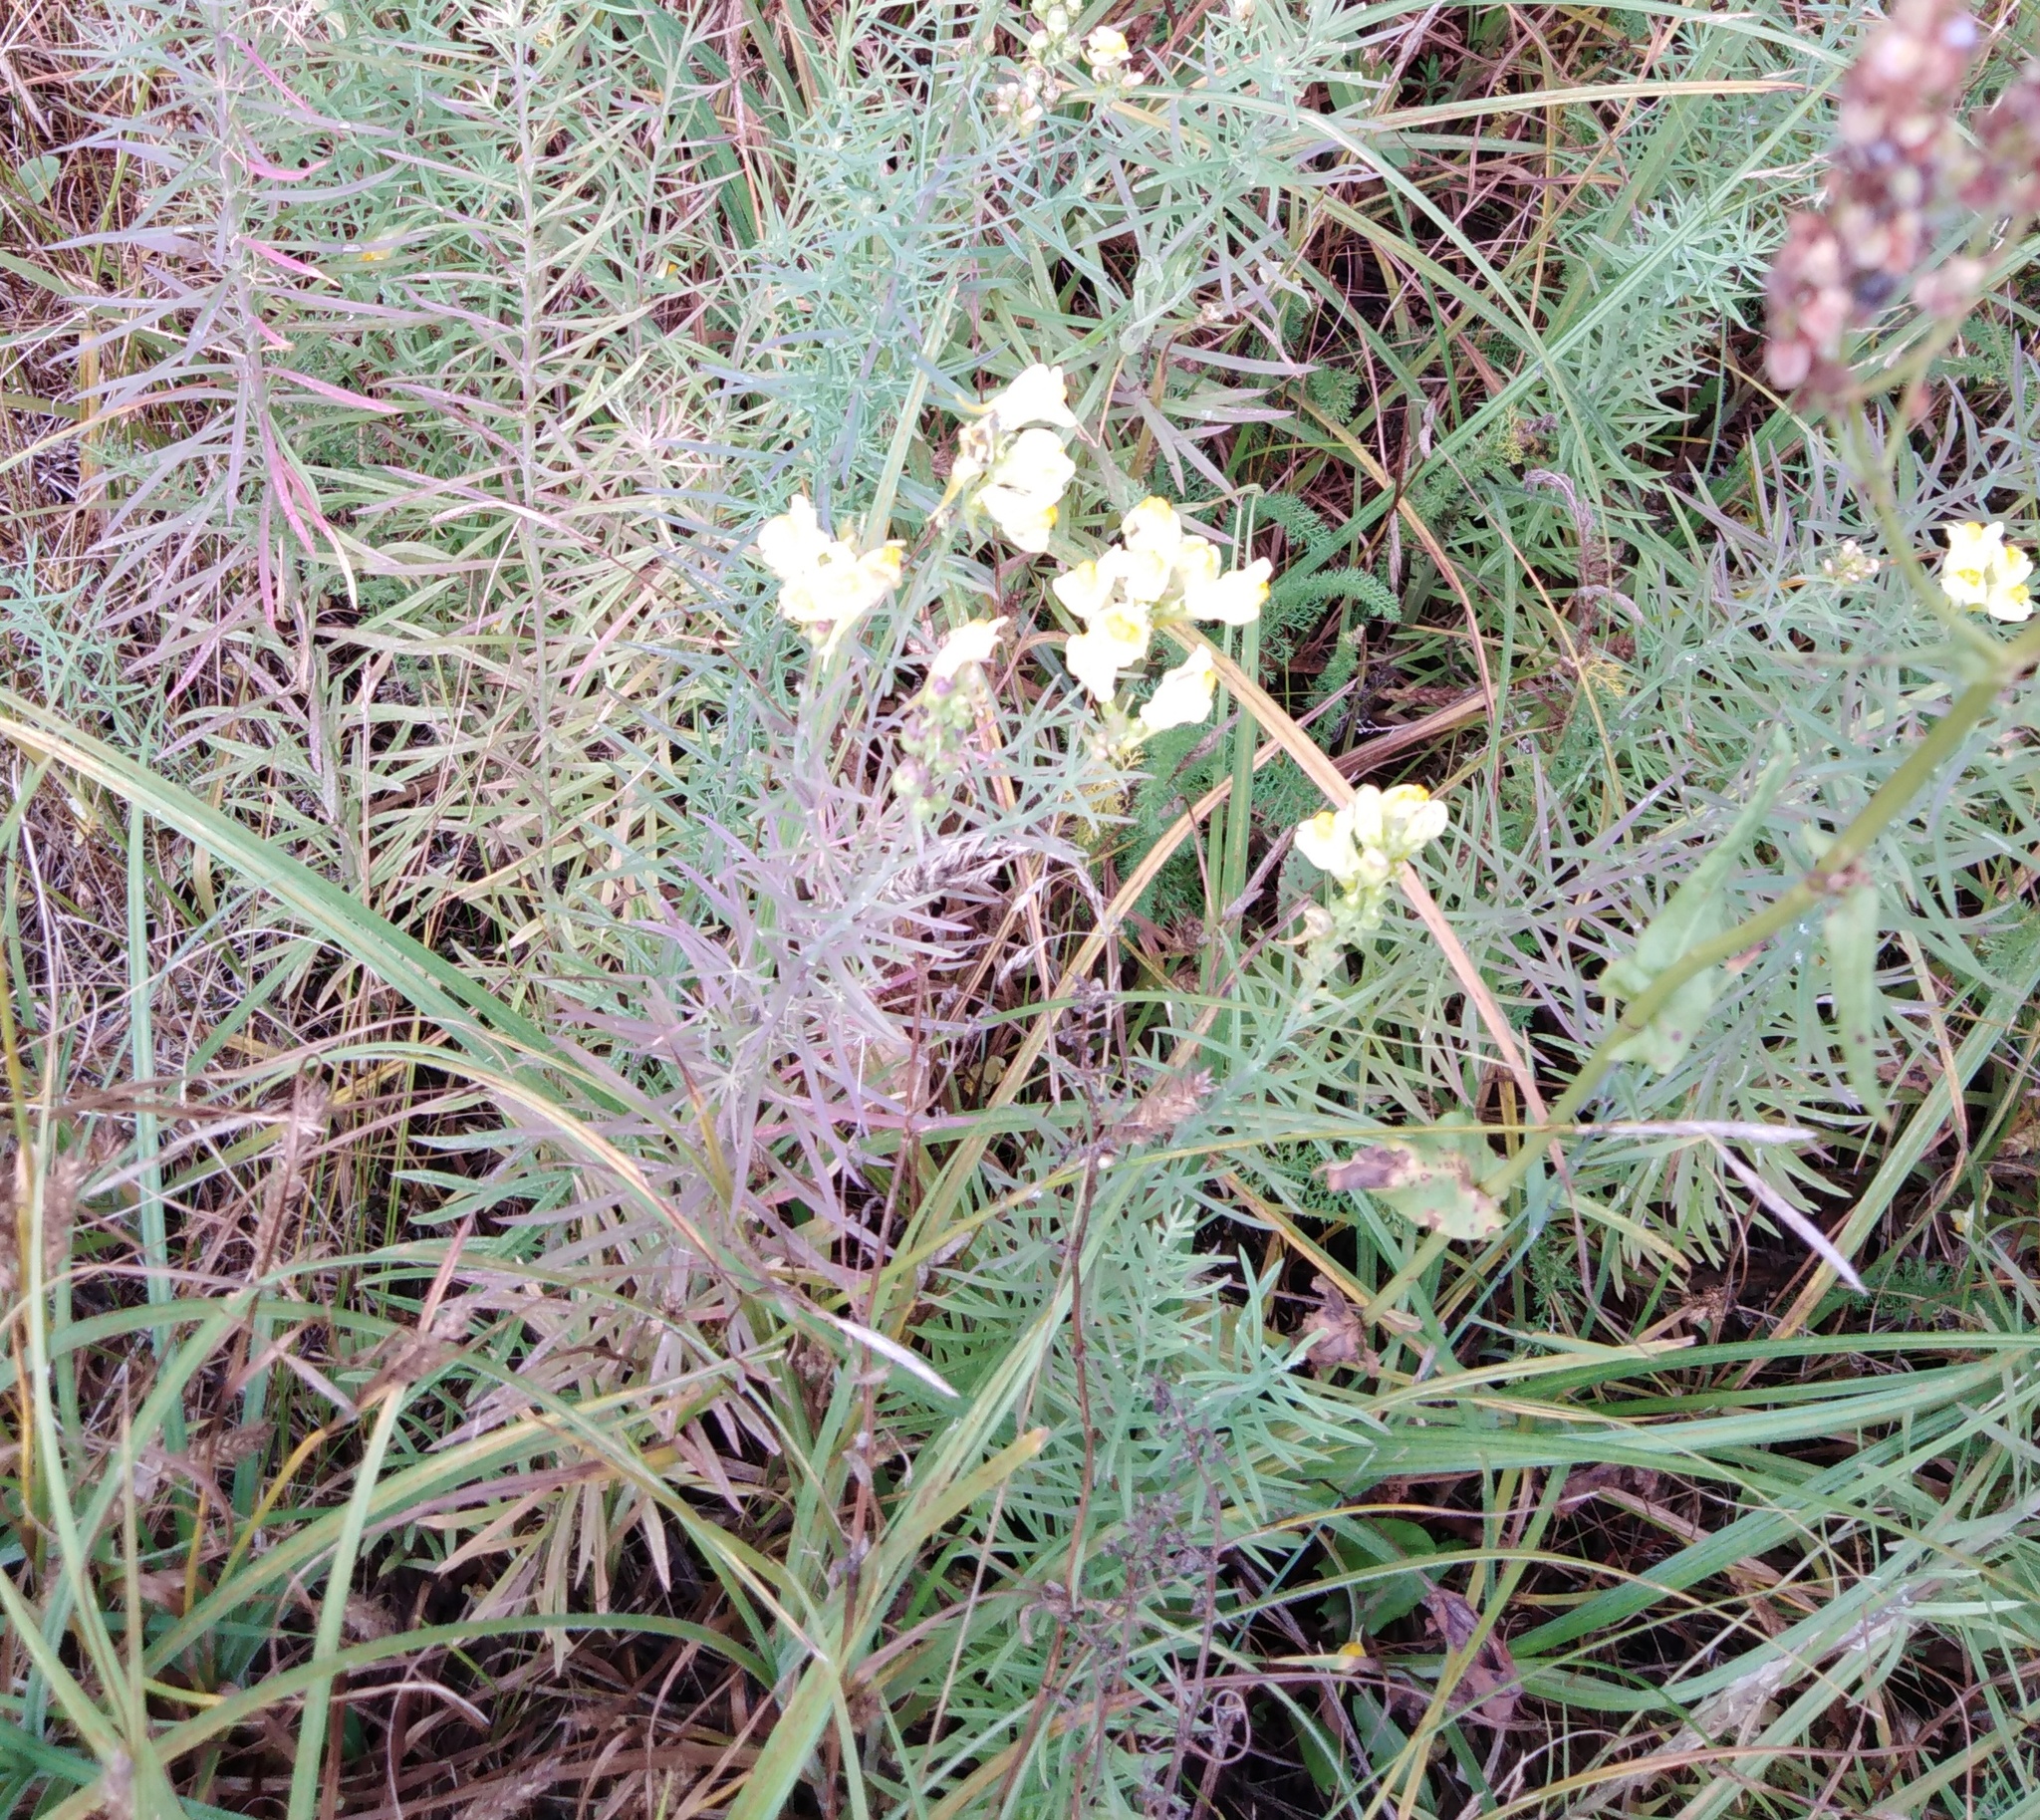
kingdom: Plantae
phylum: Tracheophyta
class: Magnoliopsida
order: Lamiales
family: Plantaginaceae
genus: Linaria
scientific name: Linaria vulgaris
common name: Butter and eggs
